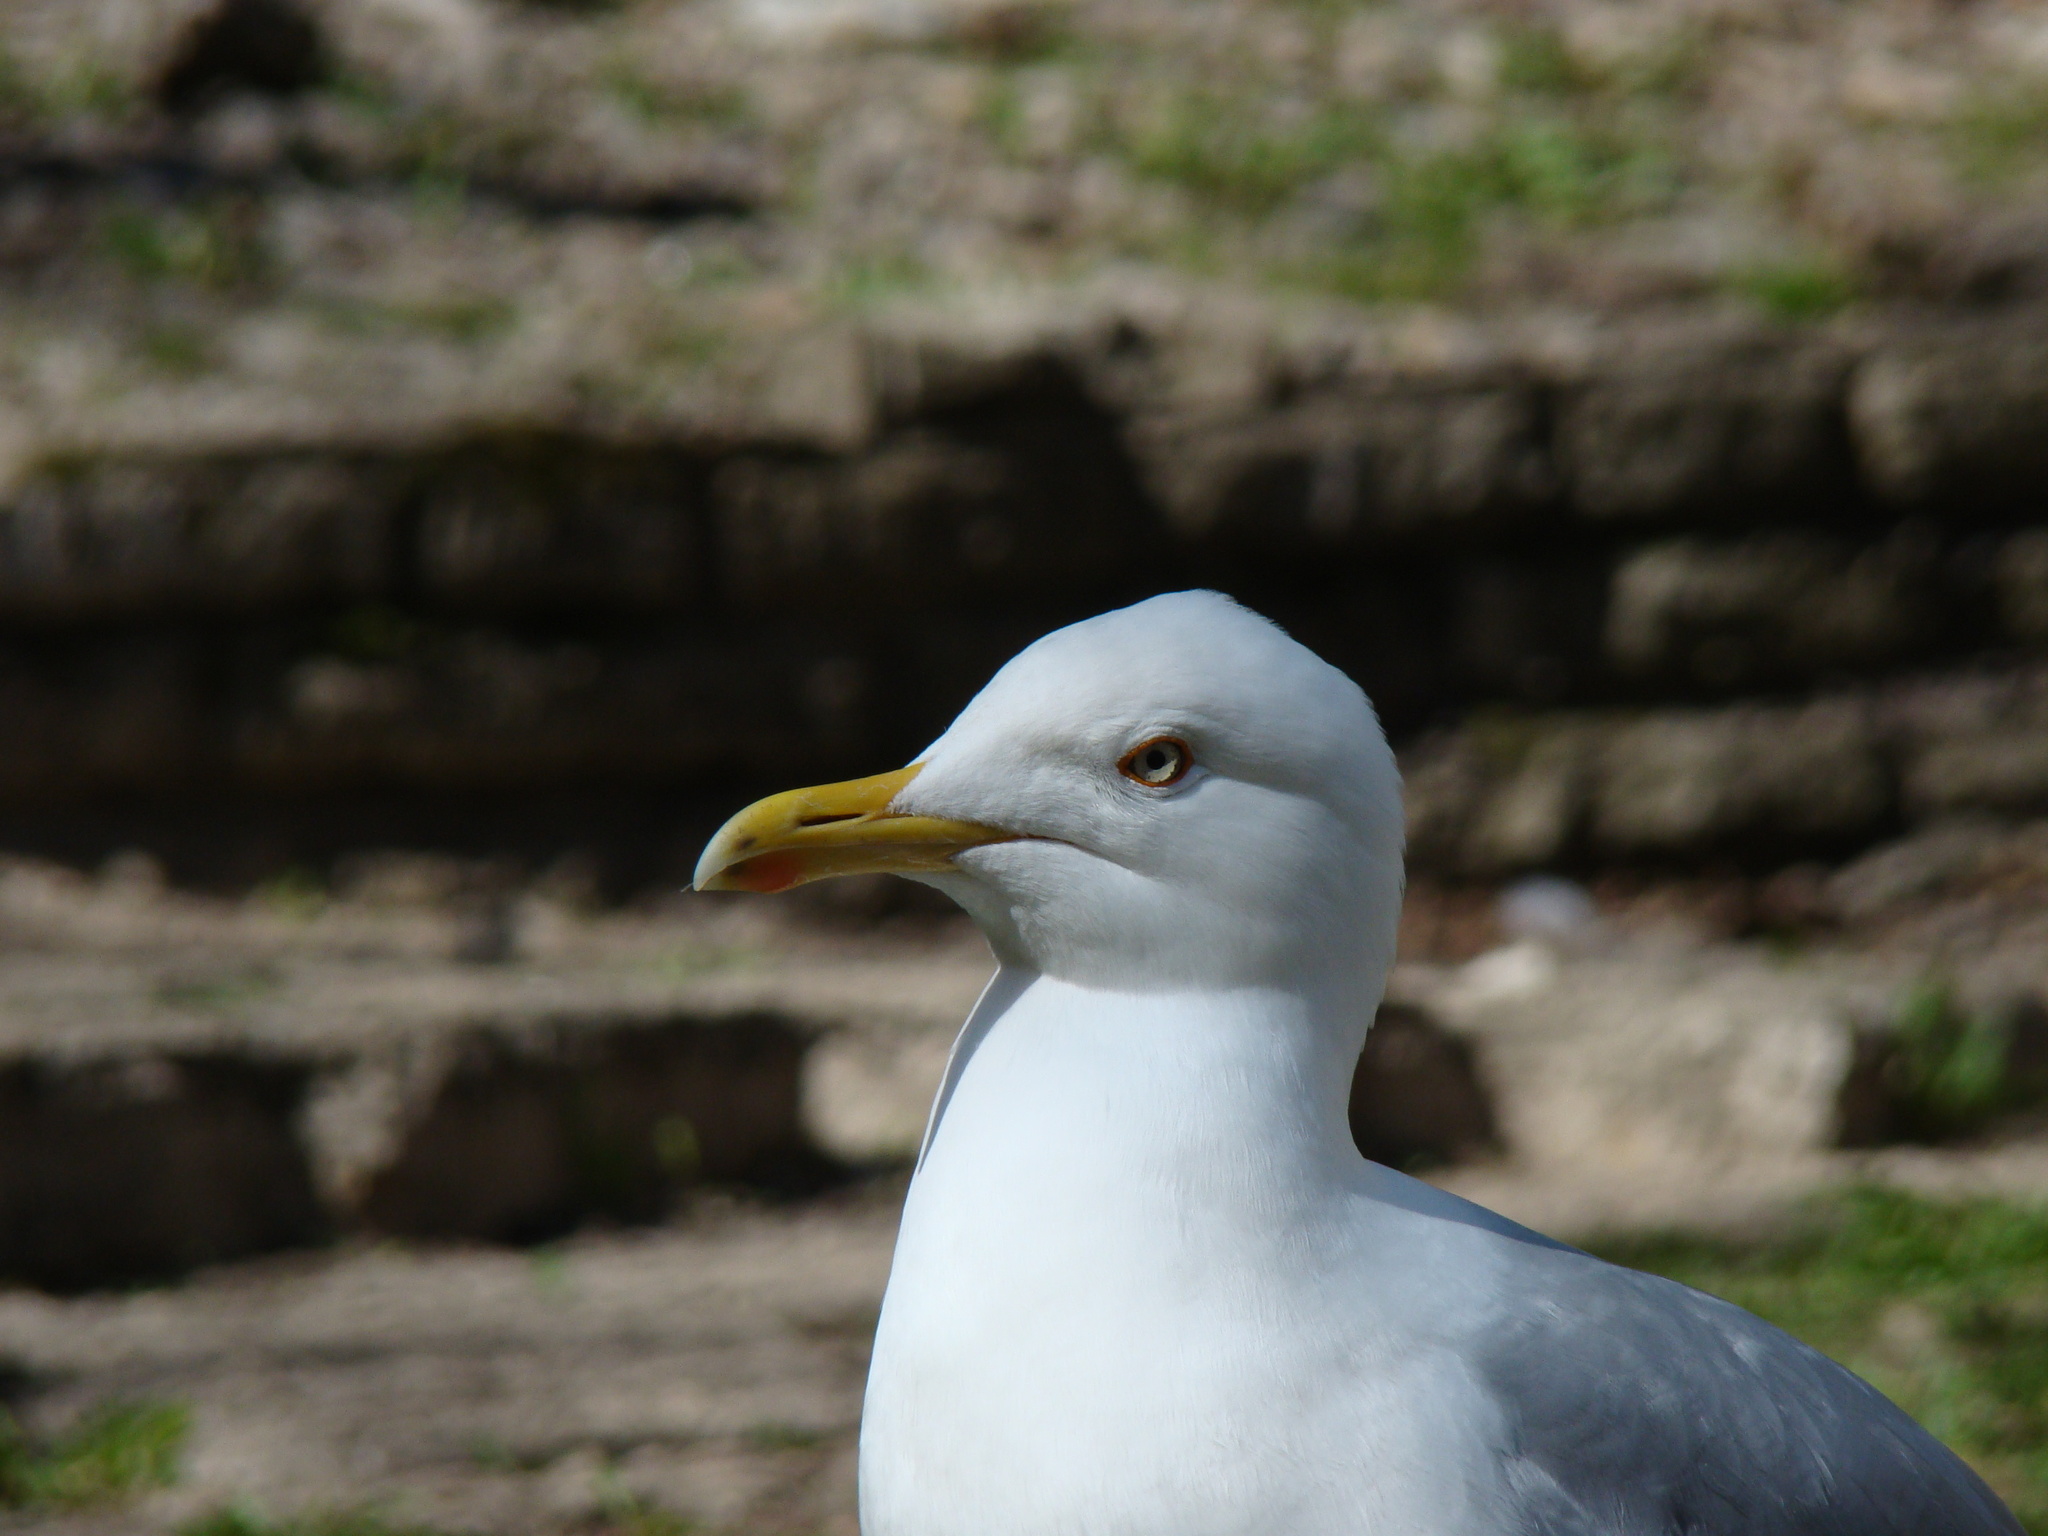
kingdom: Animalia
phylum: Chordata
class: Aves
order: Charadriiformes
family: Laridae
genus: Larus
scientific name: Larus argentatus
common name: Herring gull
